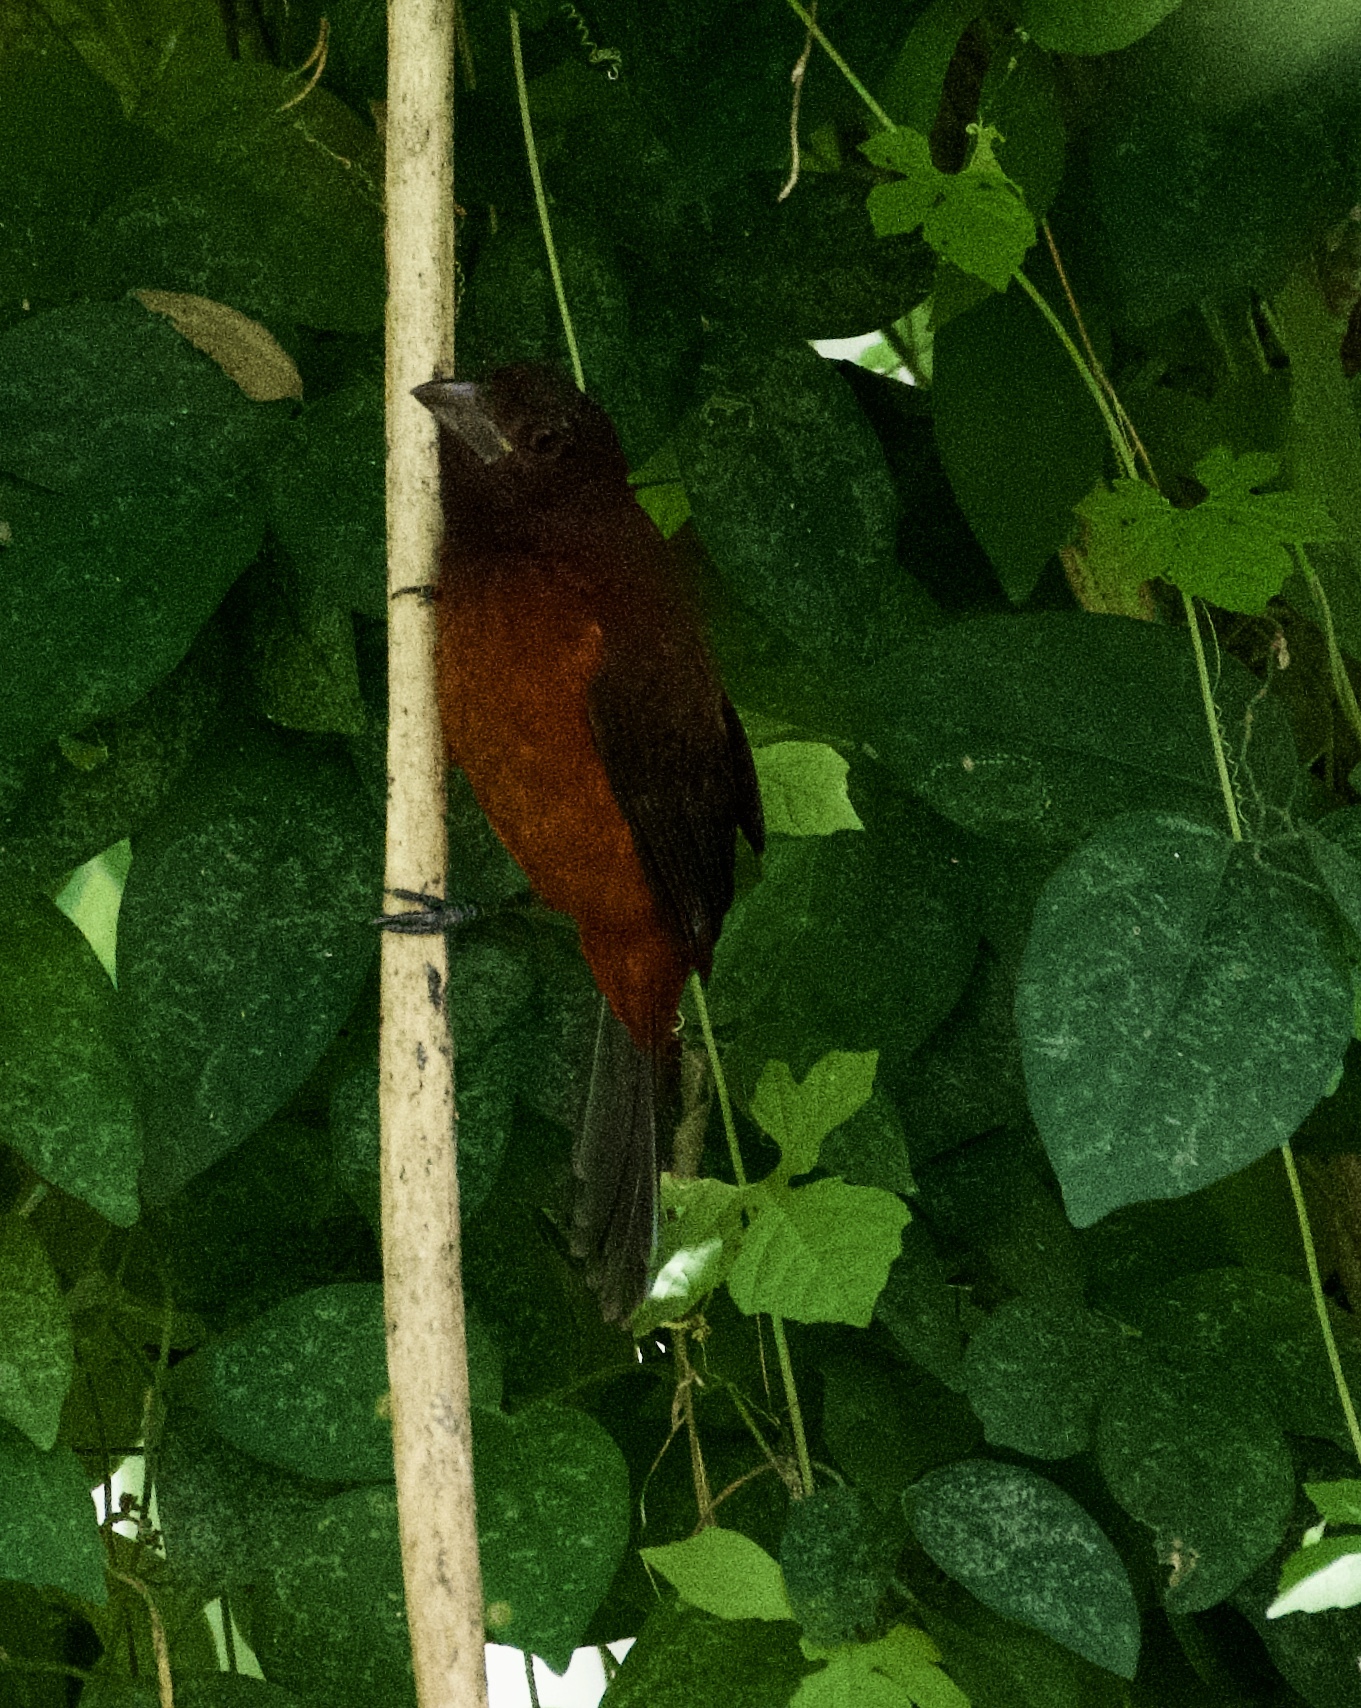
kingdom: Animalia
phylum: Chordata
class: Aves
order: Passeriformes
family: Thraupidae
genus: Ramphocelus
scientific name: Ramphocelus dimidiatus
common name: Crimson-backed tanager
